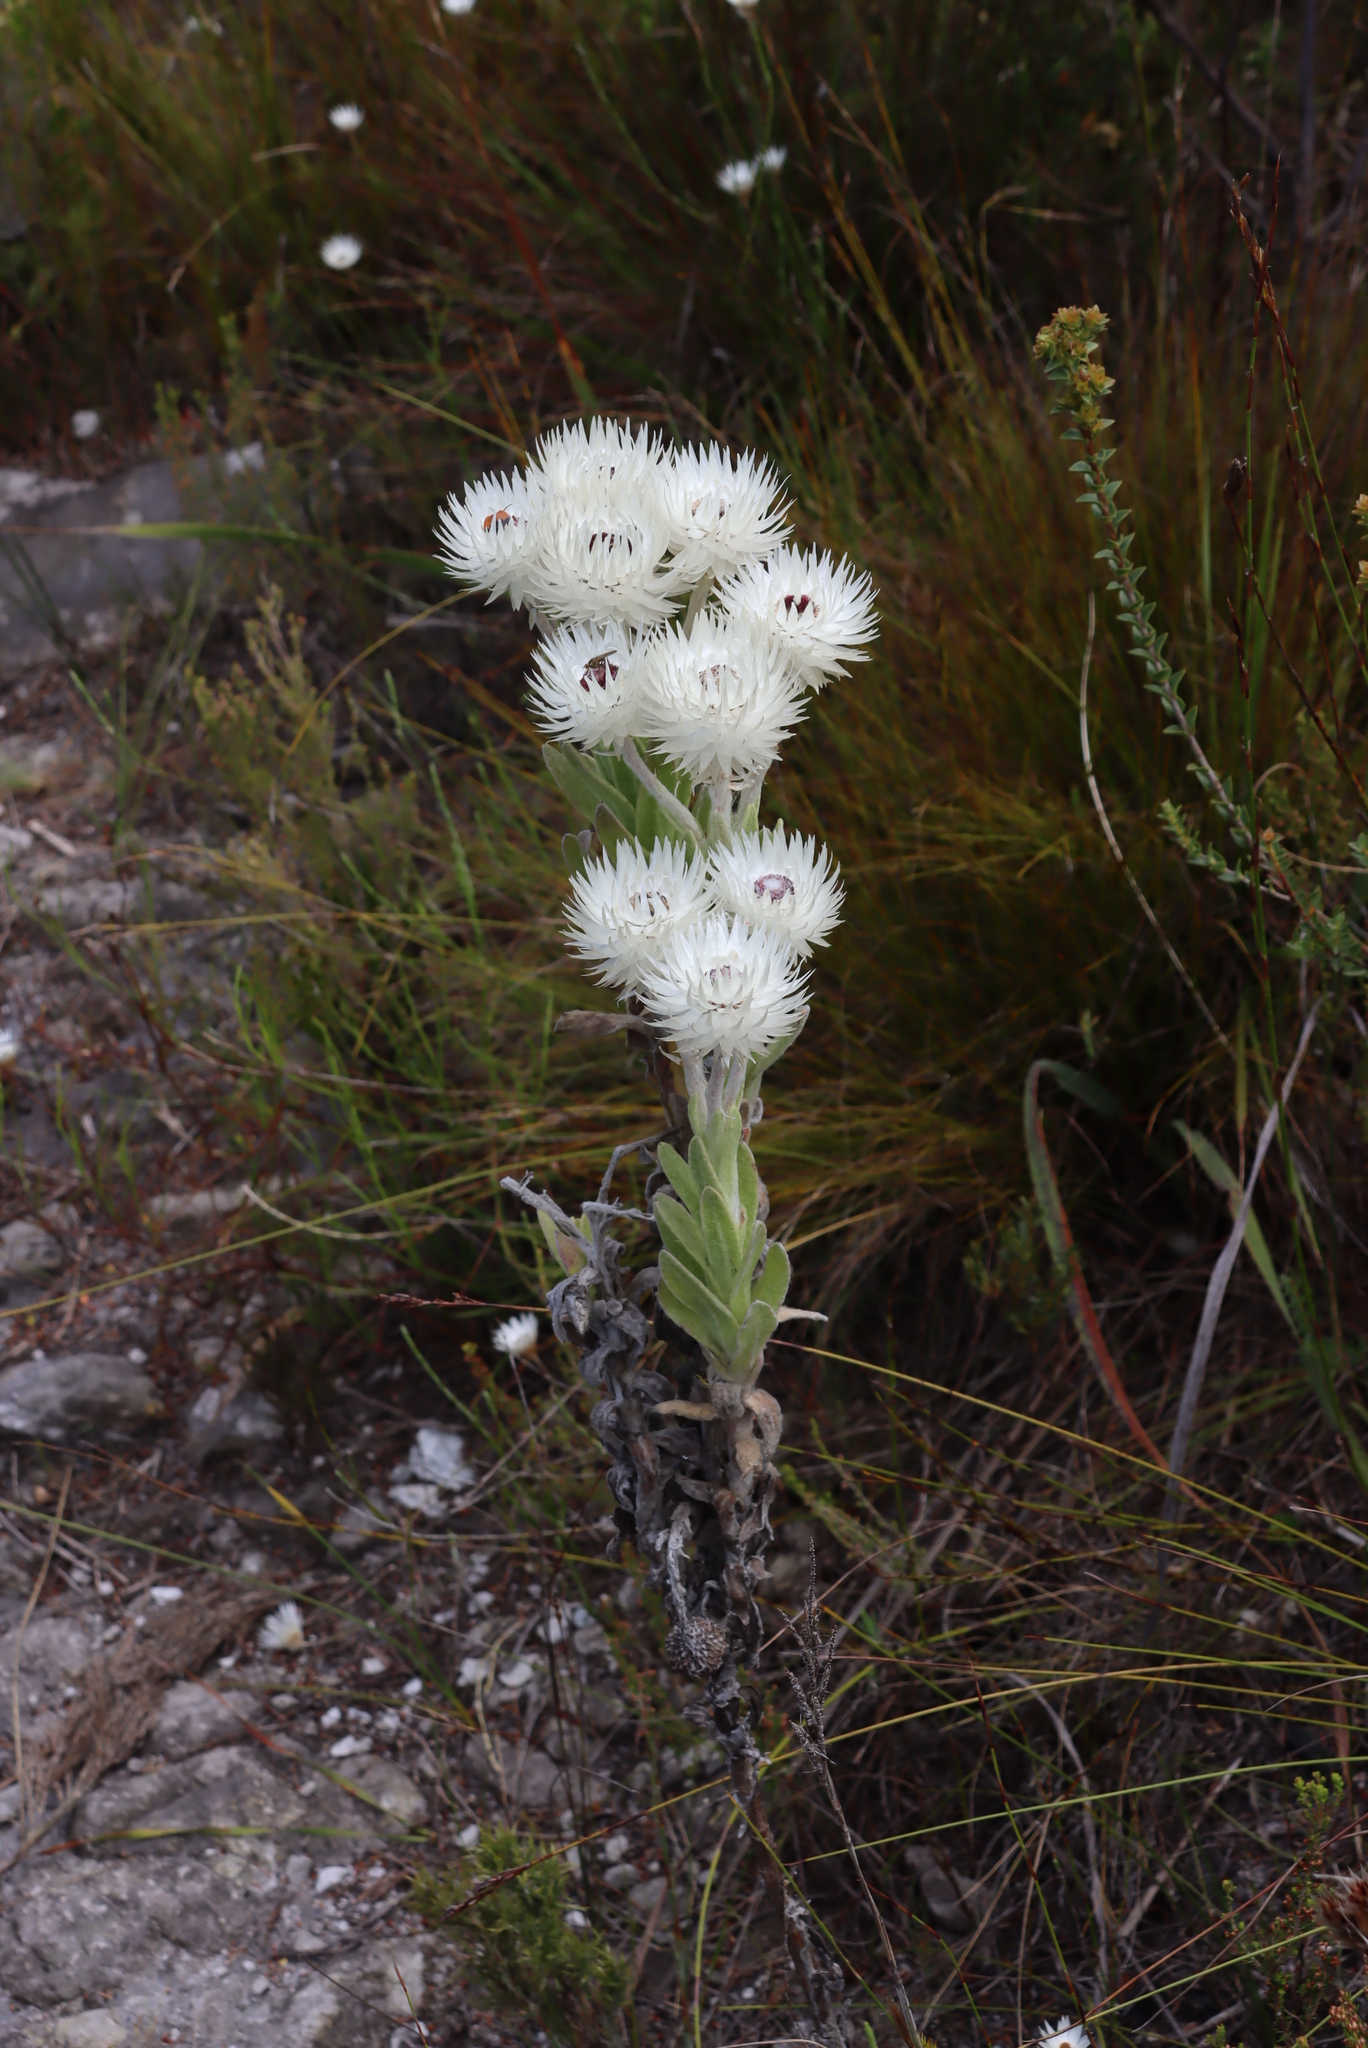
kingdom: Plantae
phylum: Tracheophyta
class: Magnoliopsida
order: Asterales
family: Asteraceae
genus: Syncarpha
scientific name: Syncarpha vestita
